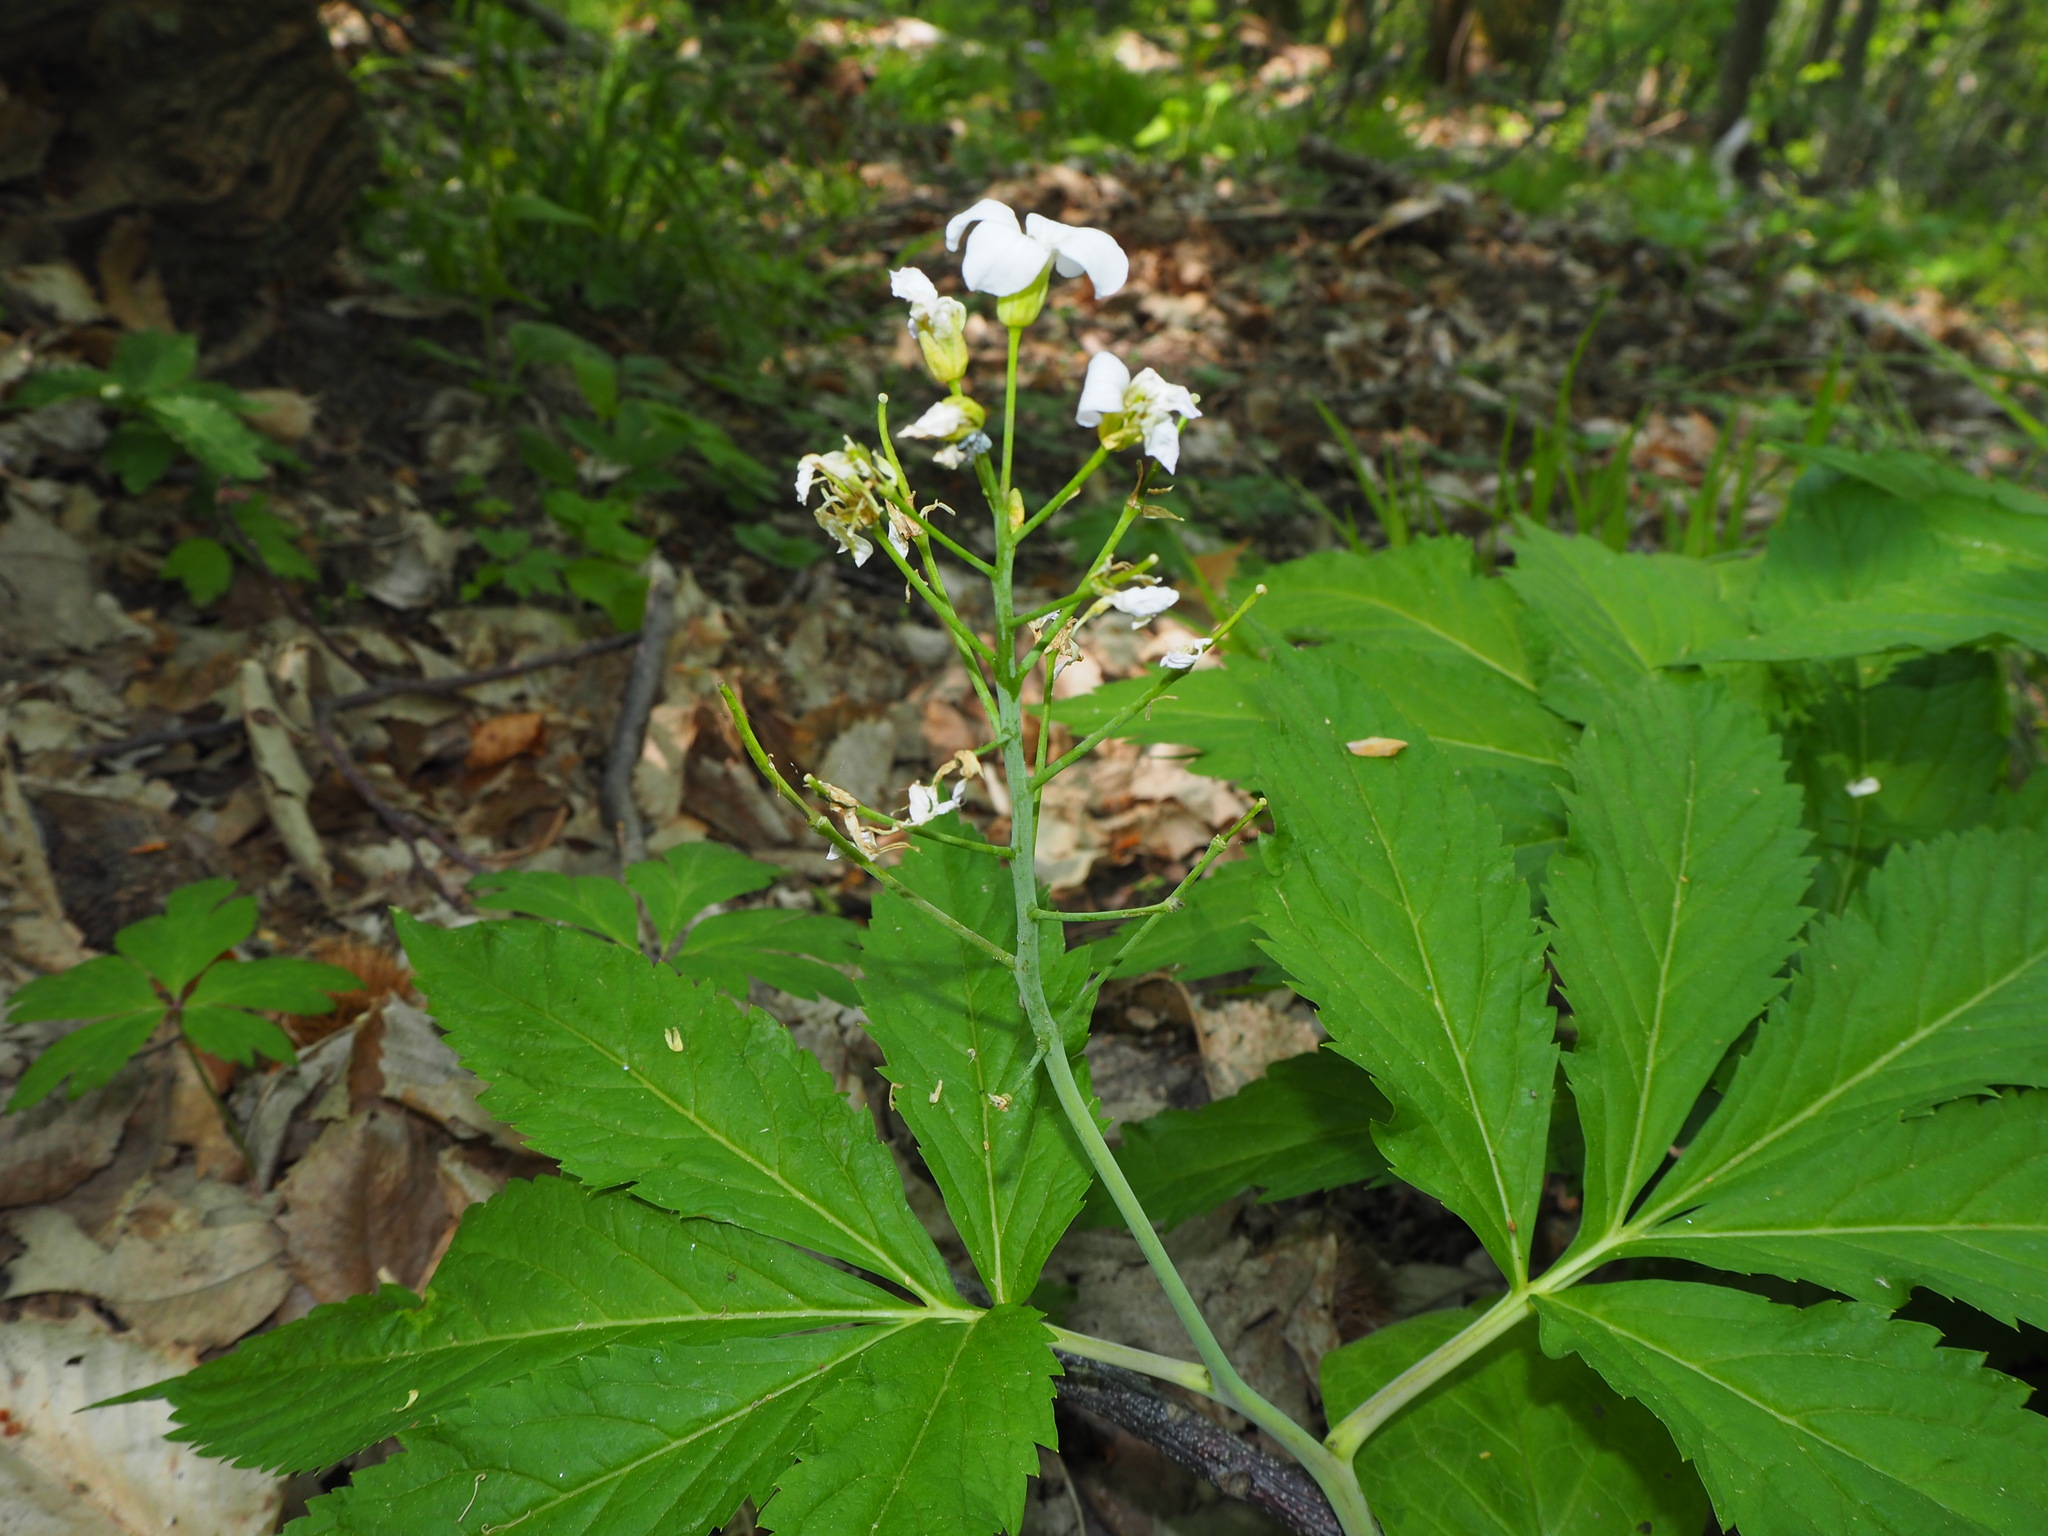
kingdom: Plantae
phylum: Tracheophyta
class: Magnoliopsida
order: Brassicales
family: Brassicaceae
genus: Cardamine
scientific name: Cardamine heptaphylla
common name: Pinnate coralroot
